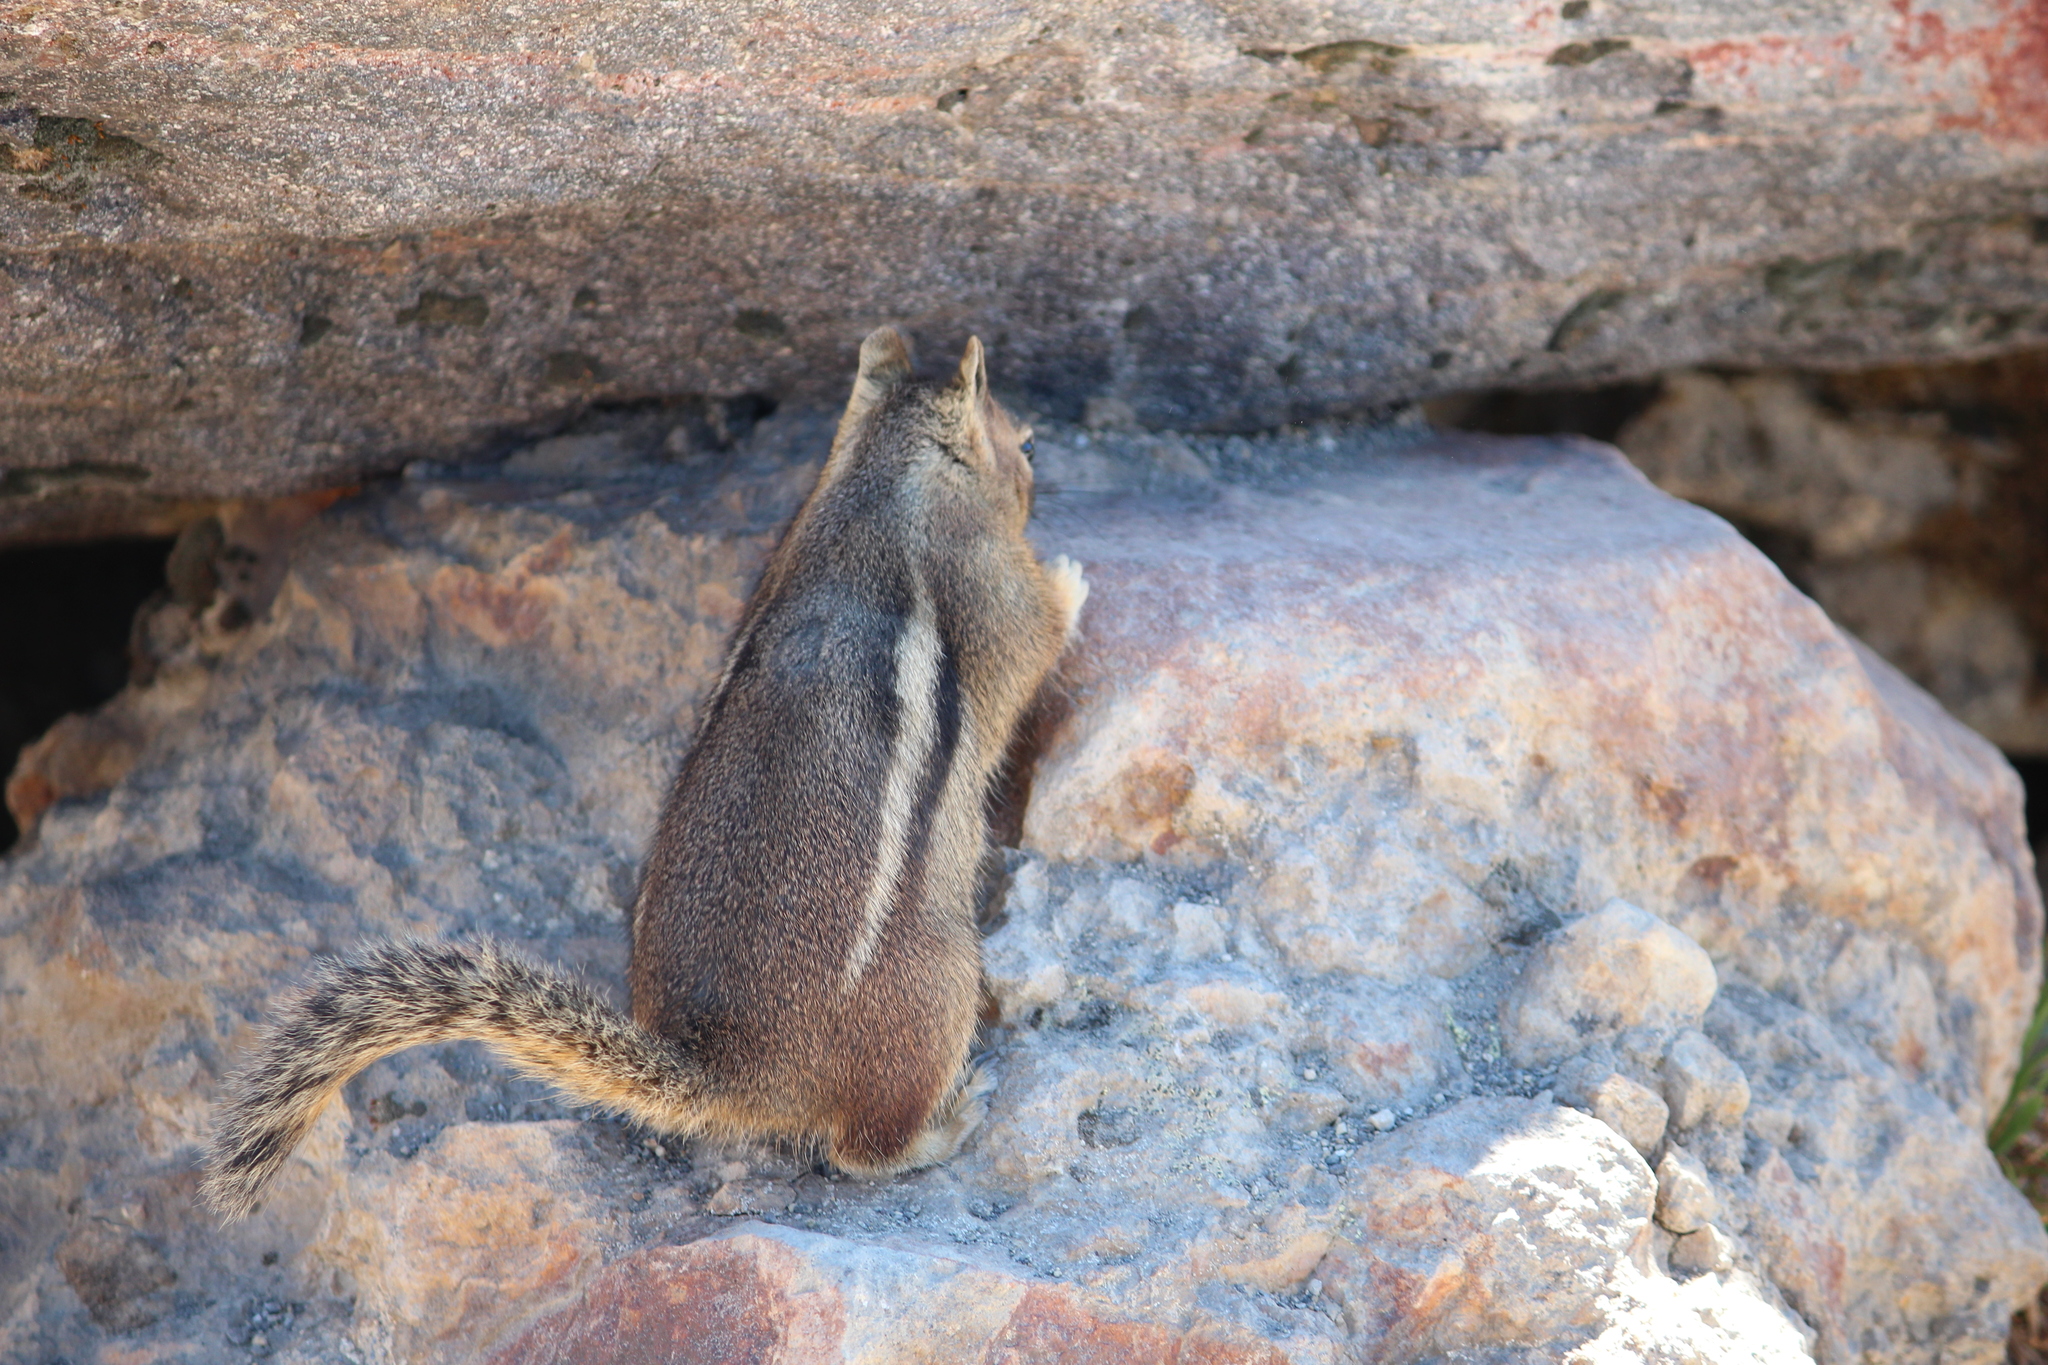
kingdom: Animalia
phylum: Chordata
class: Mammalia
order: Rodentia
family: Sciuridae
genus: Callospermophilus
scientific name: Callospermophilus saturatus
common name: Cascade golden-mantled ground squirrel
